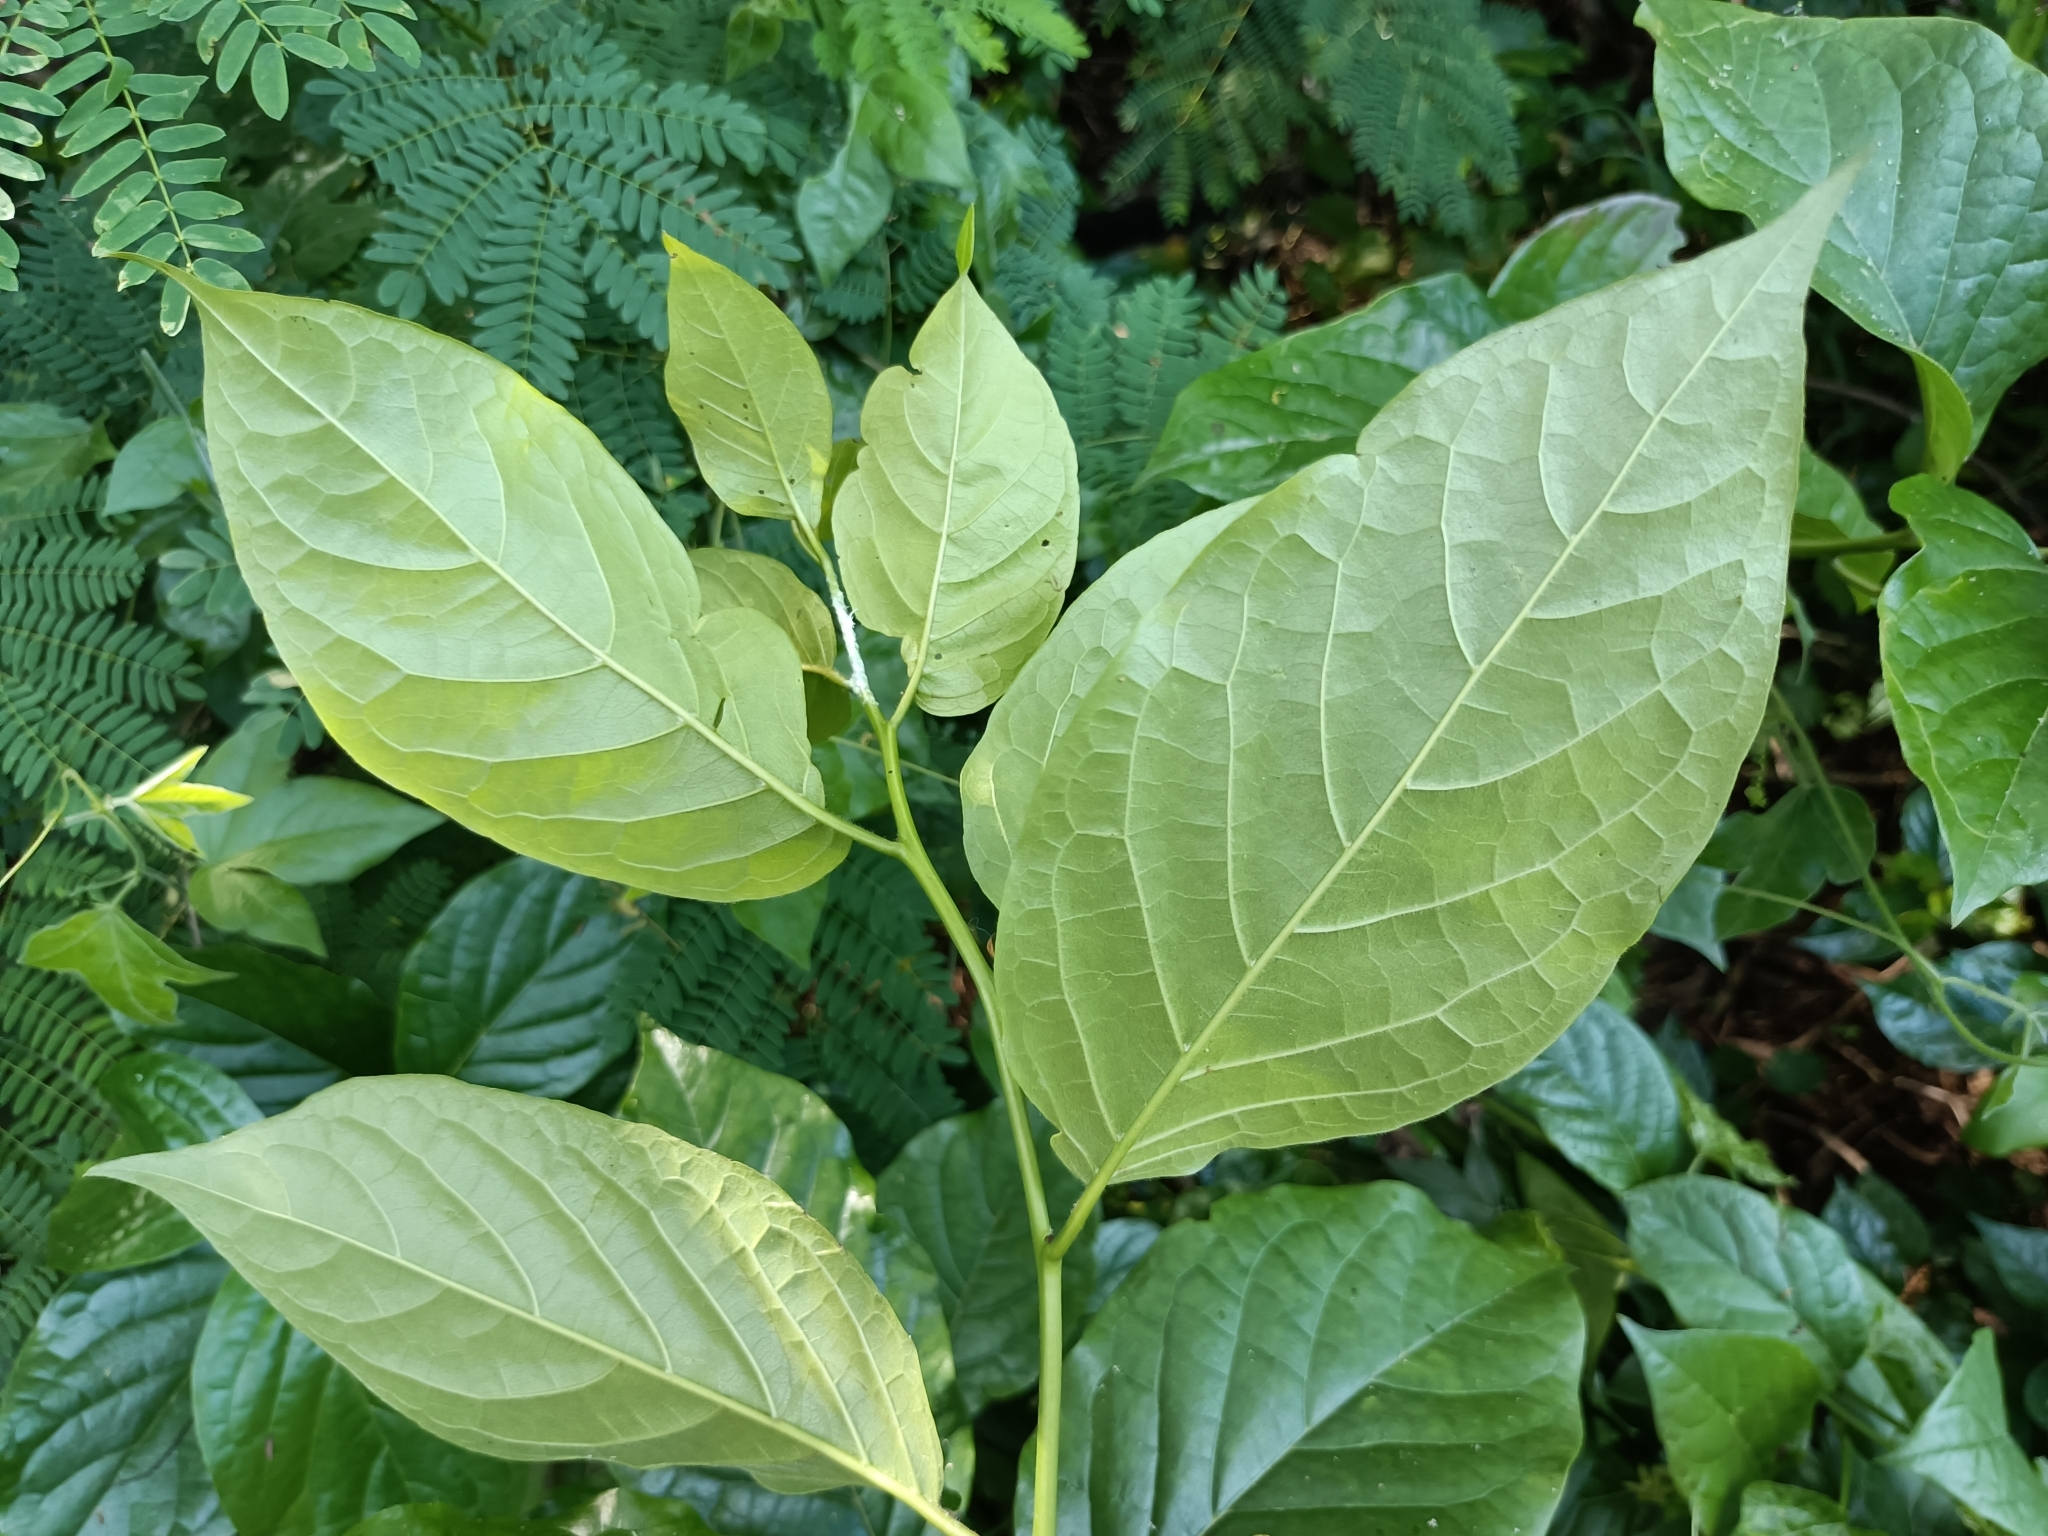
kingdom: Plantae
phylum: Tracheophyta
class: Magnoliopsida
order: Boraginales
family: Ehretiaceae
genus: Ehretia
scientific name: Ehretia resinosa
